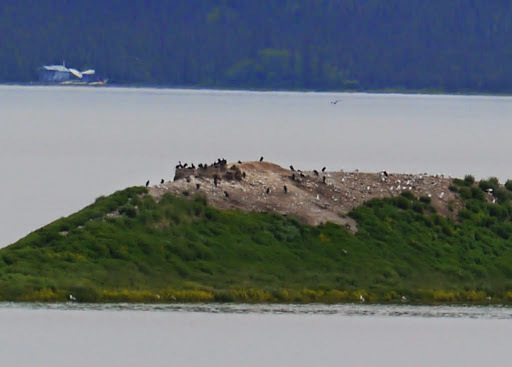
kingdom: Animalia
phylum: Chordata
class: Aves
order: Suliformes
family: Phalacrocoracidae
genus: Phalacrocorax
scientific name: Phalacrocorax auritus
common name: Double-crested cormorant
